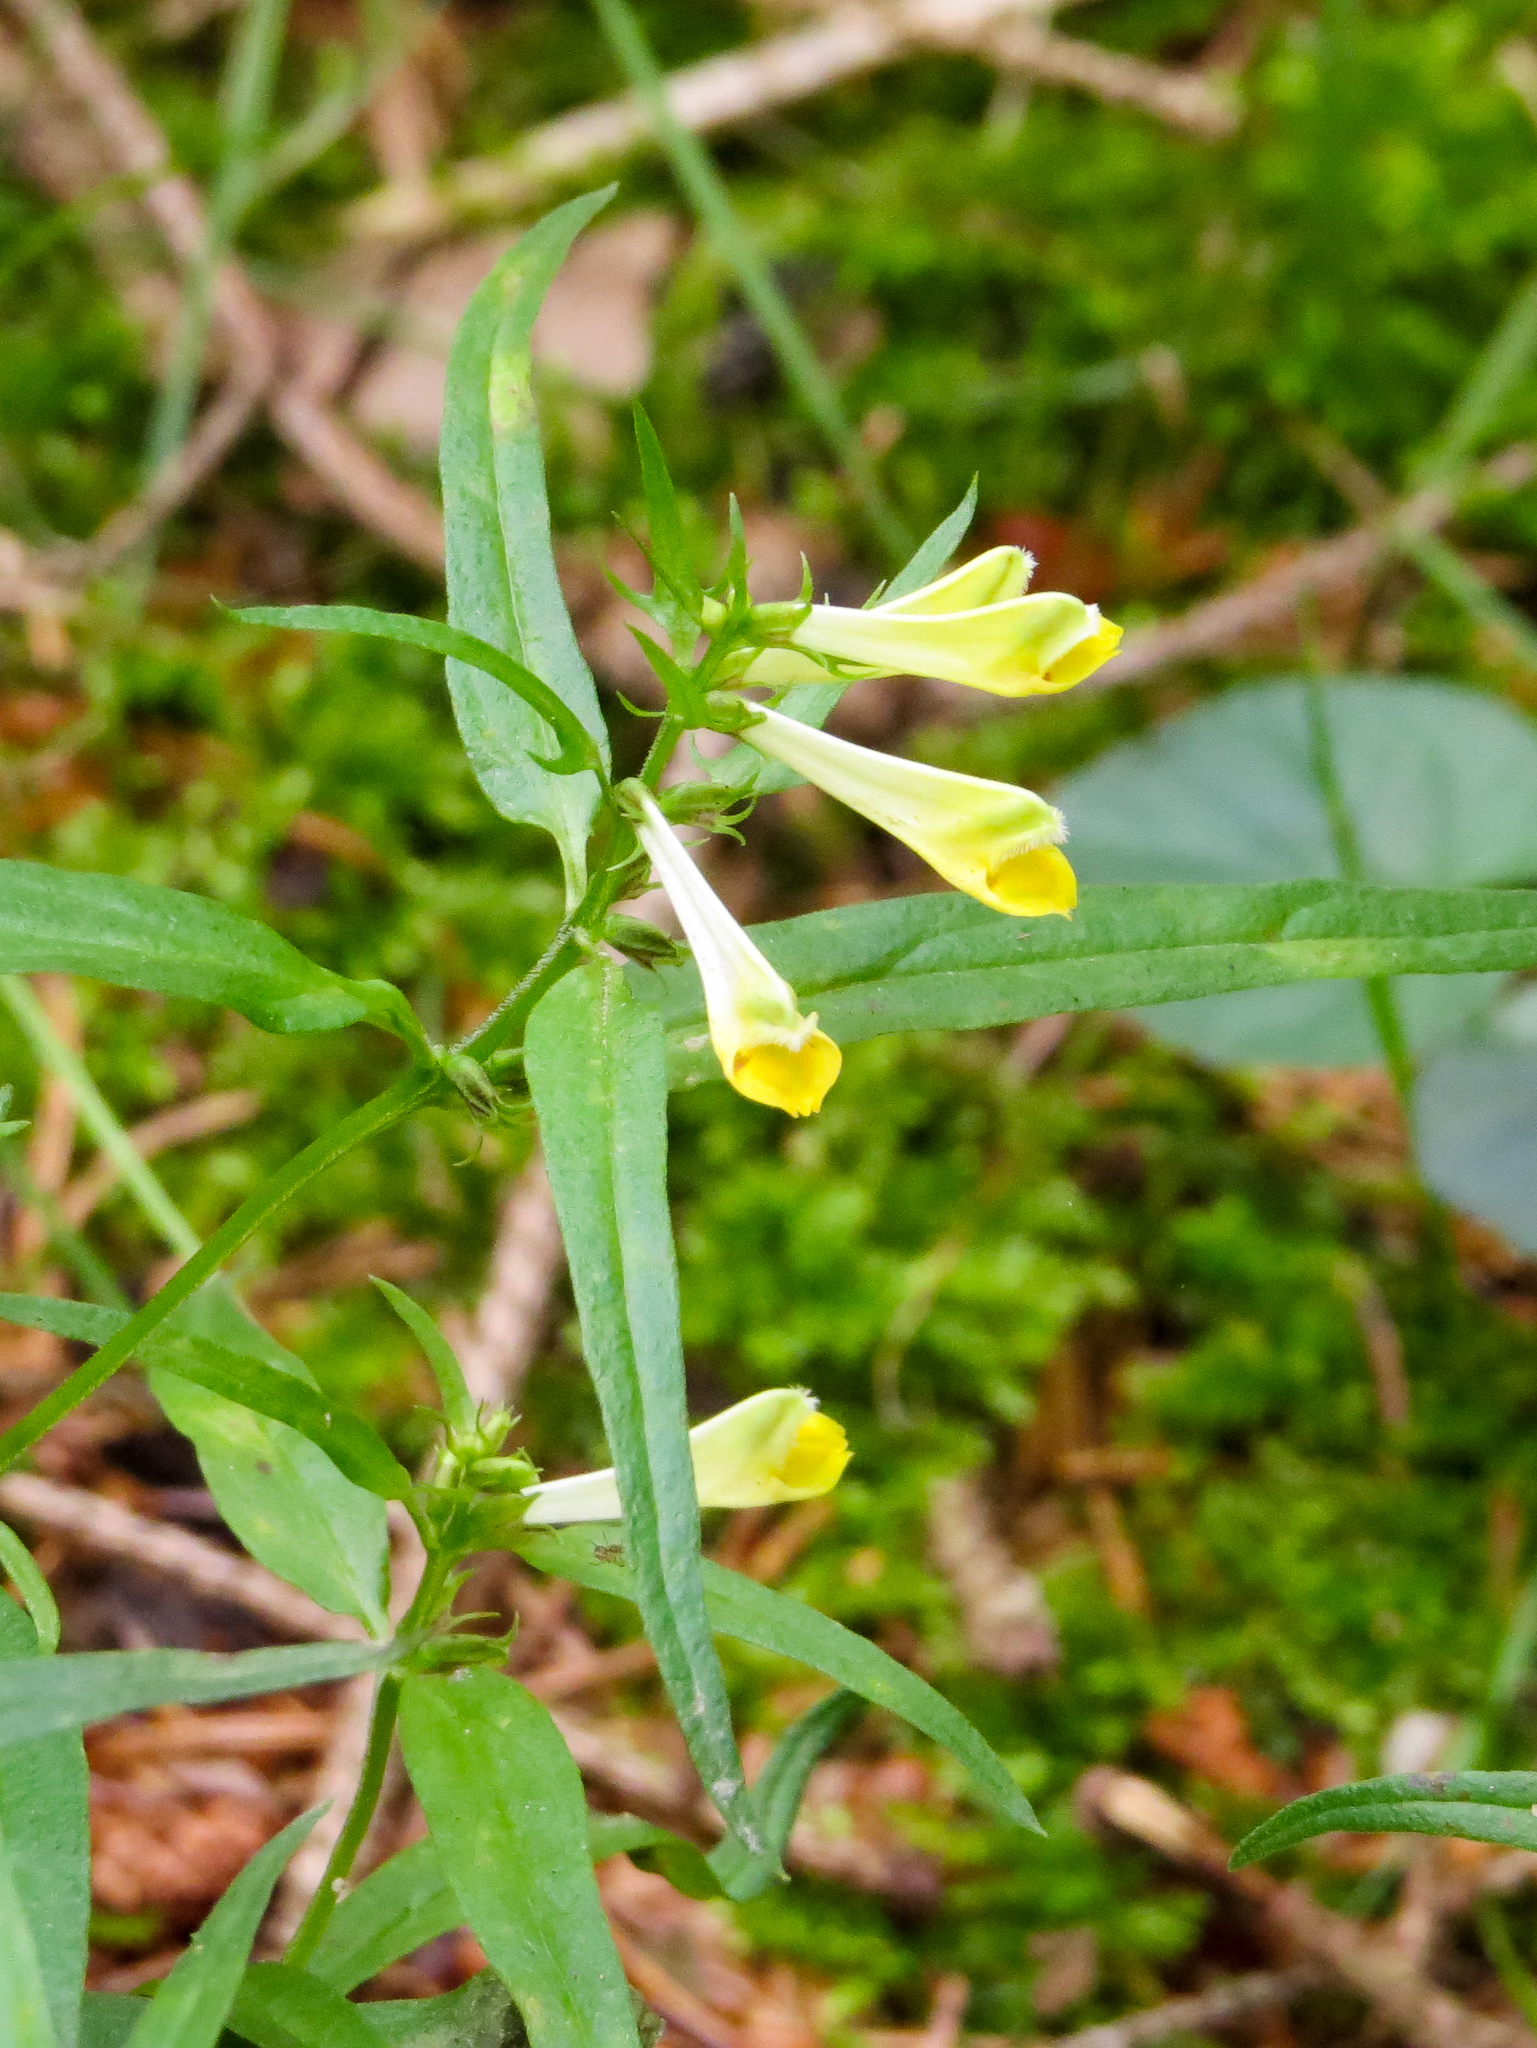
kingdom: Plantae
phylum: Tracheophyta
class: Magnoliopsida
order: Lamiales
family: Orobanchaceae
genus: Melampyrum
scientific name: Melampyrum pratense
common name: Common cow-wheat
